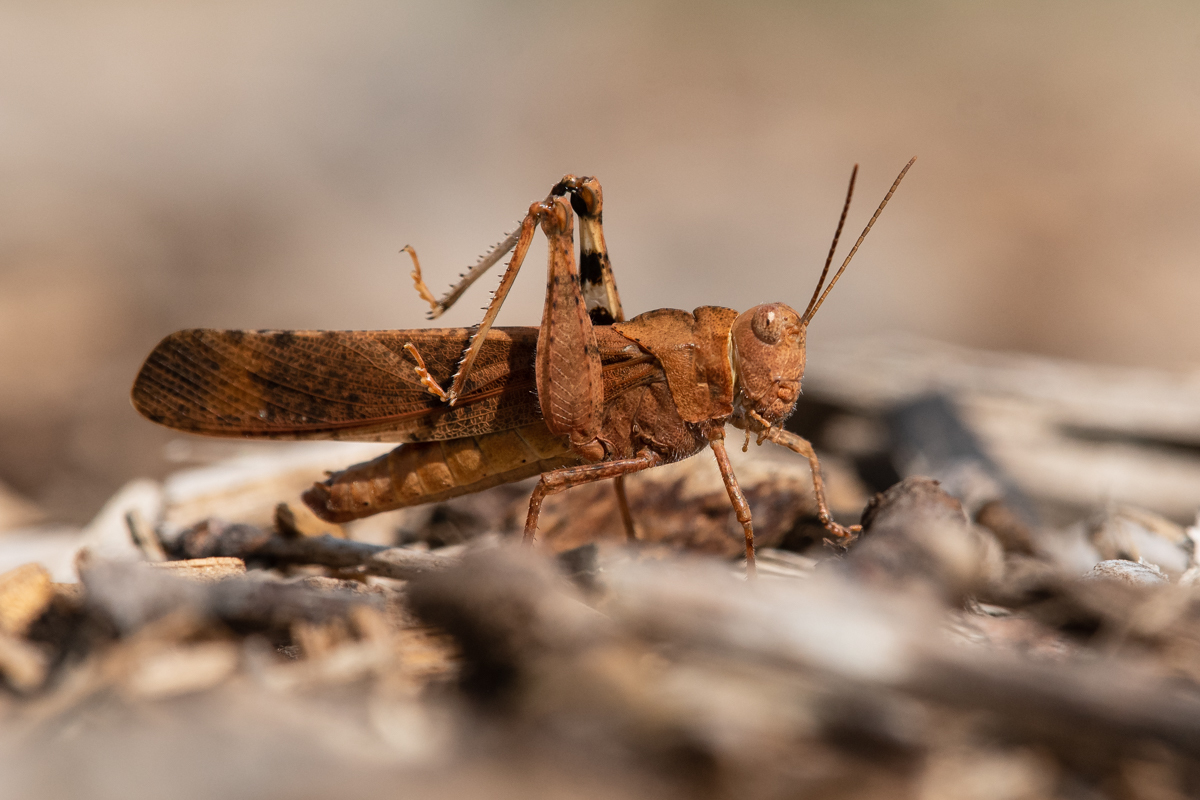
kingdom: Animalia
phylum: Arthropoda
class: Insecta
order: Orthoptera
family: Acrididae
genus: Dissosteira
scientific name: Dissosteira carolina
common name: Carolina grasshopper
